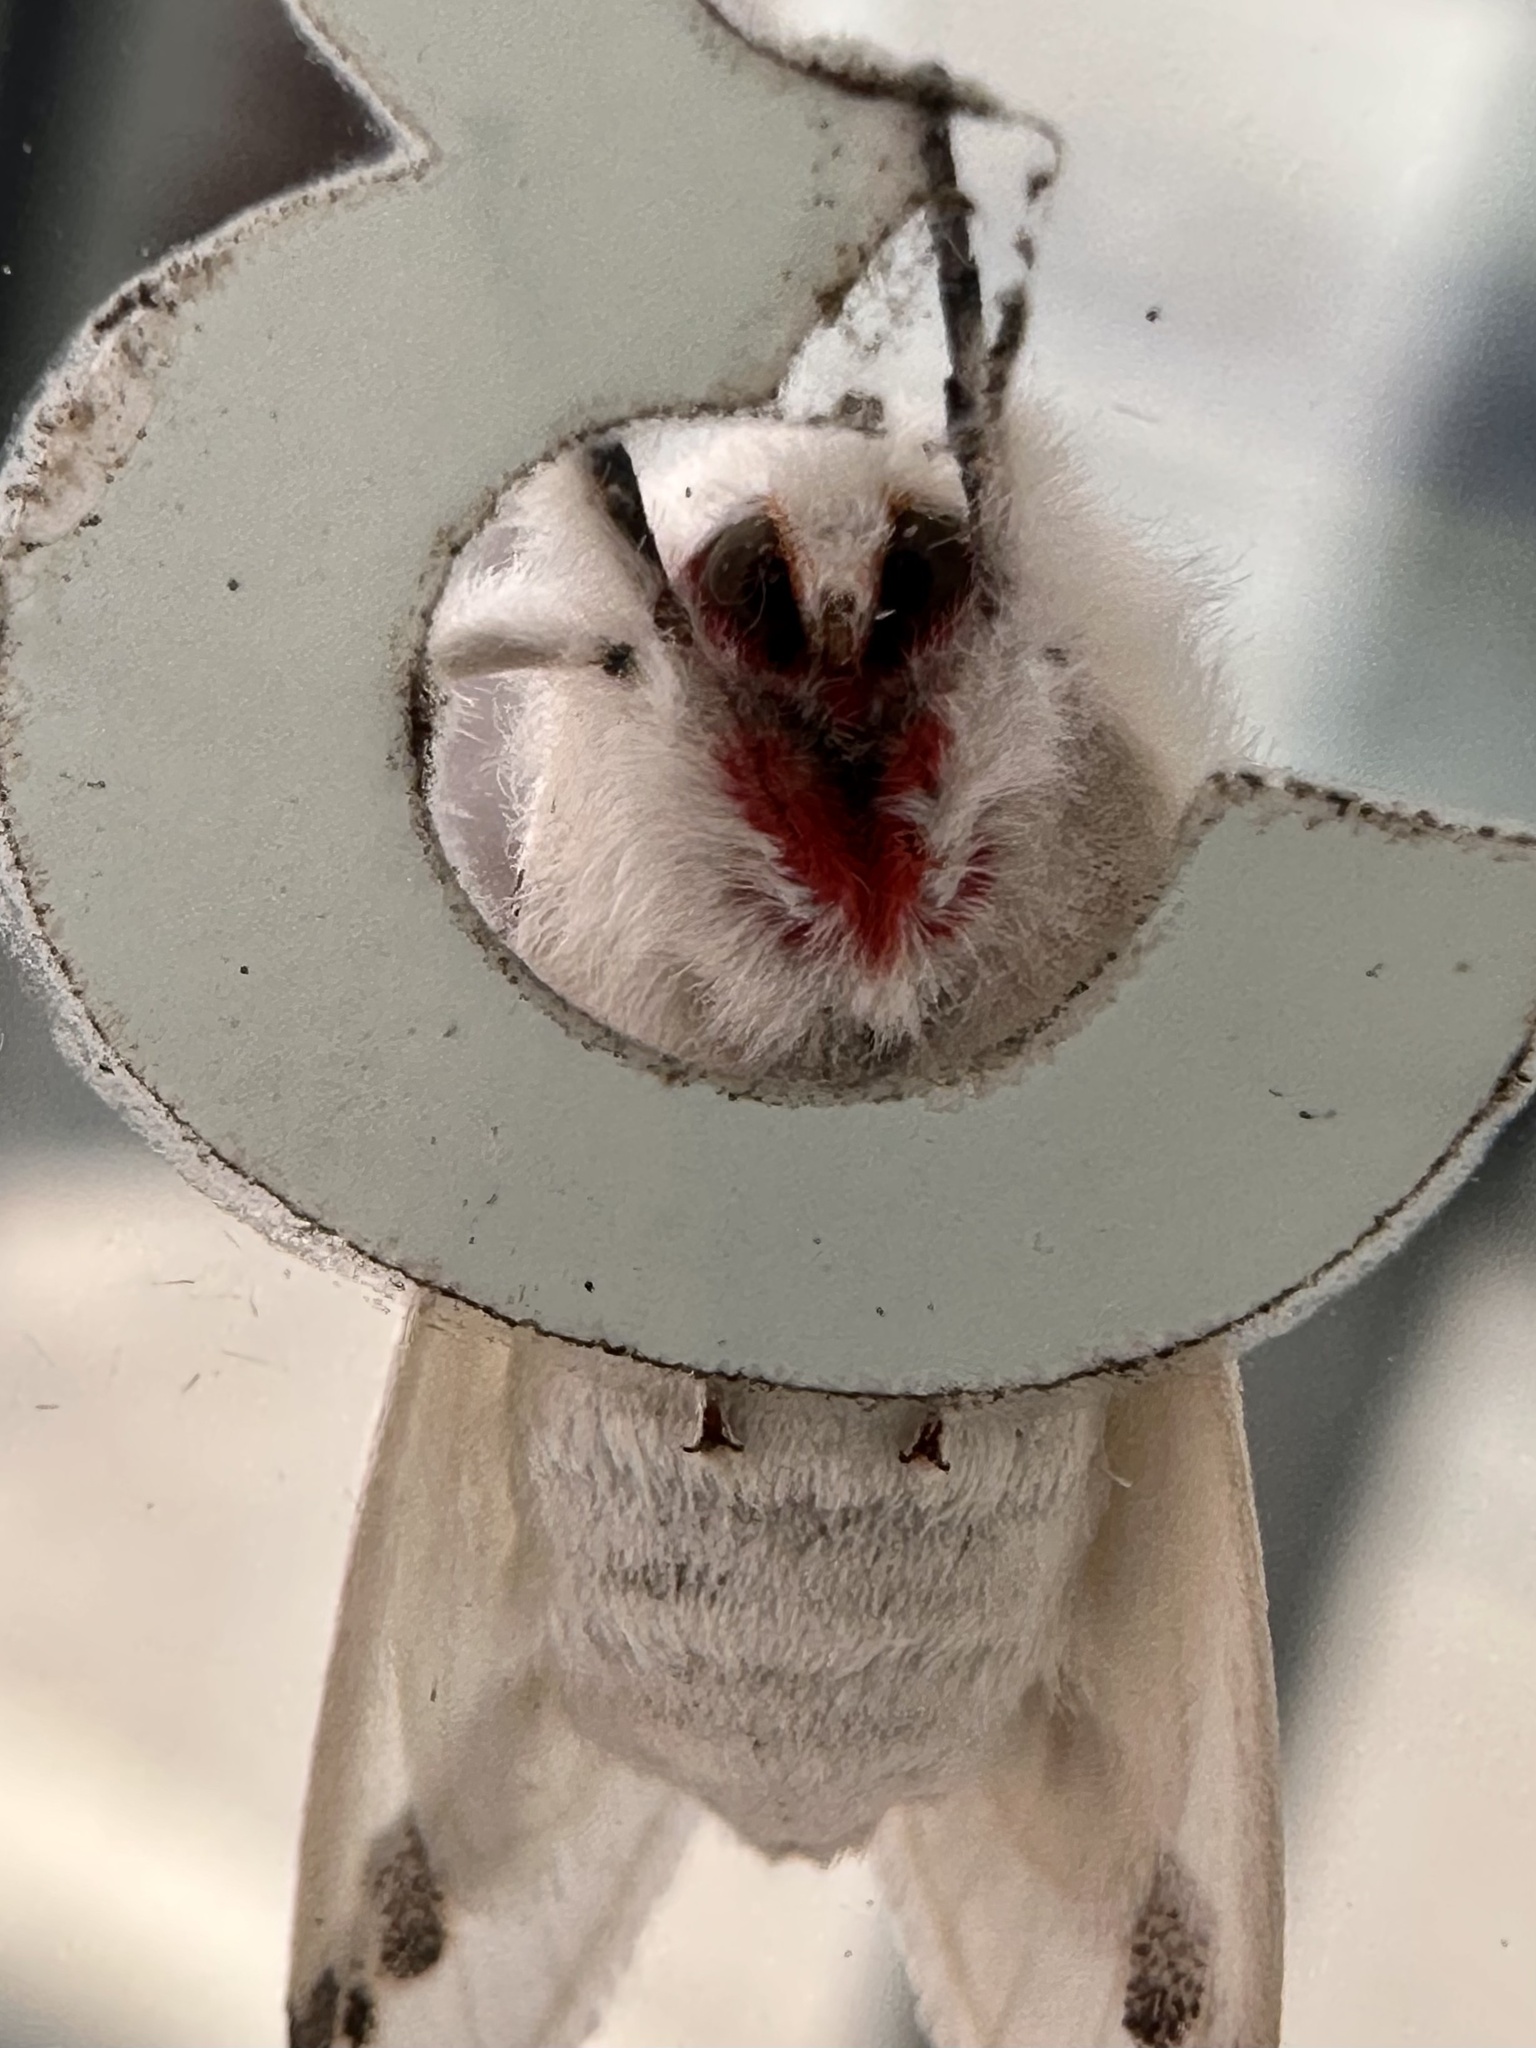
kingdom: Animalia
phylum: Arthropoda
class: Insecta
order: Lepidoptera
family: Erebidae
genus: Euerythra
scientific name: Euerythra trimaculata
